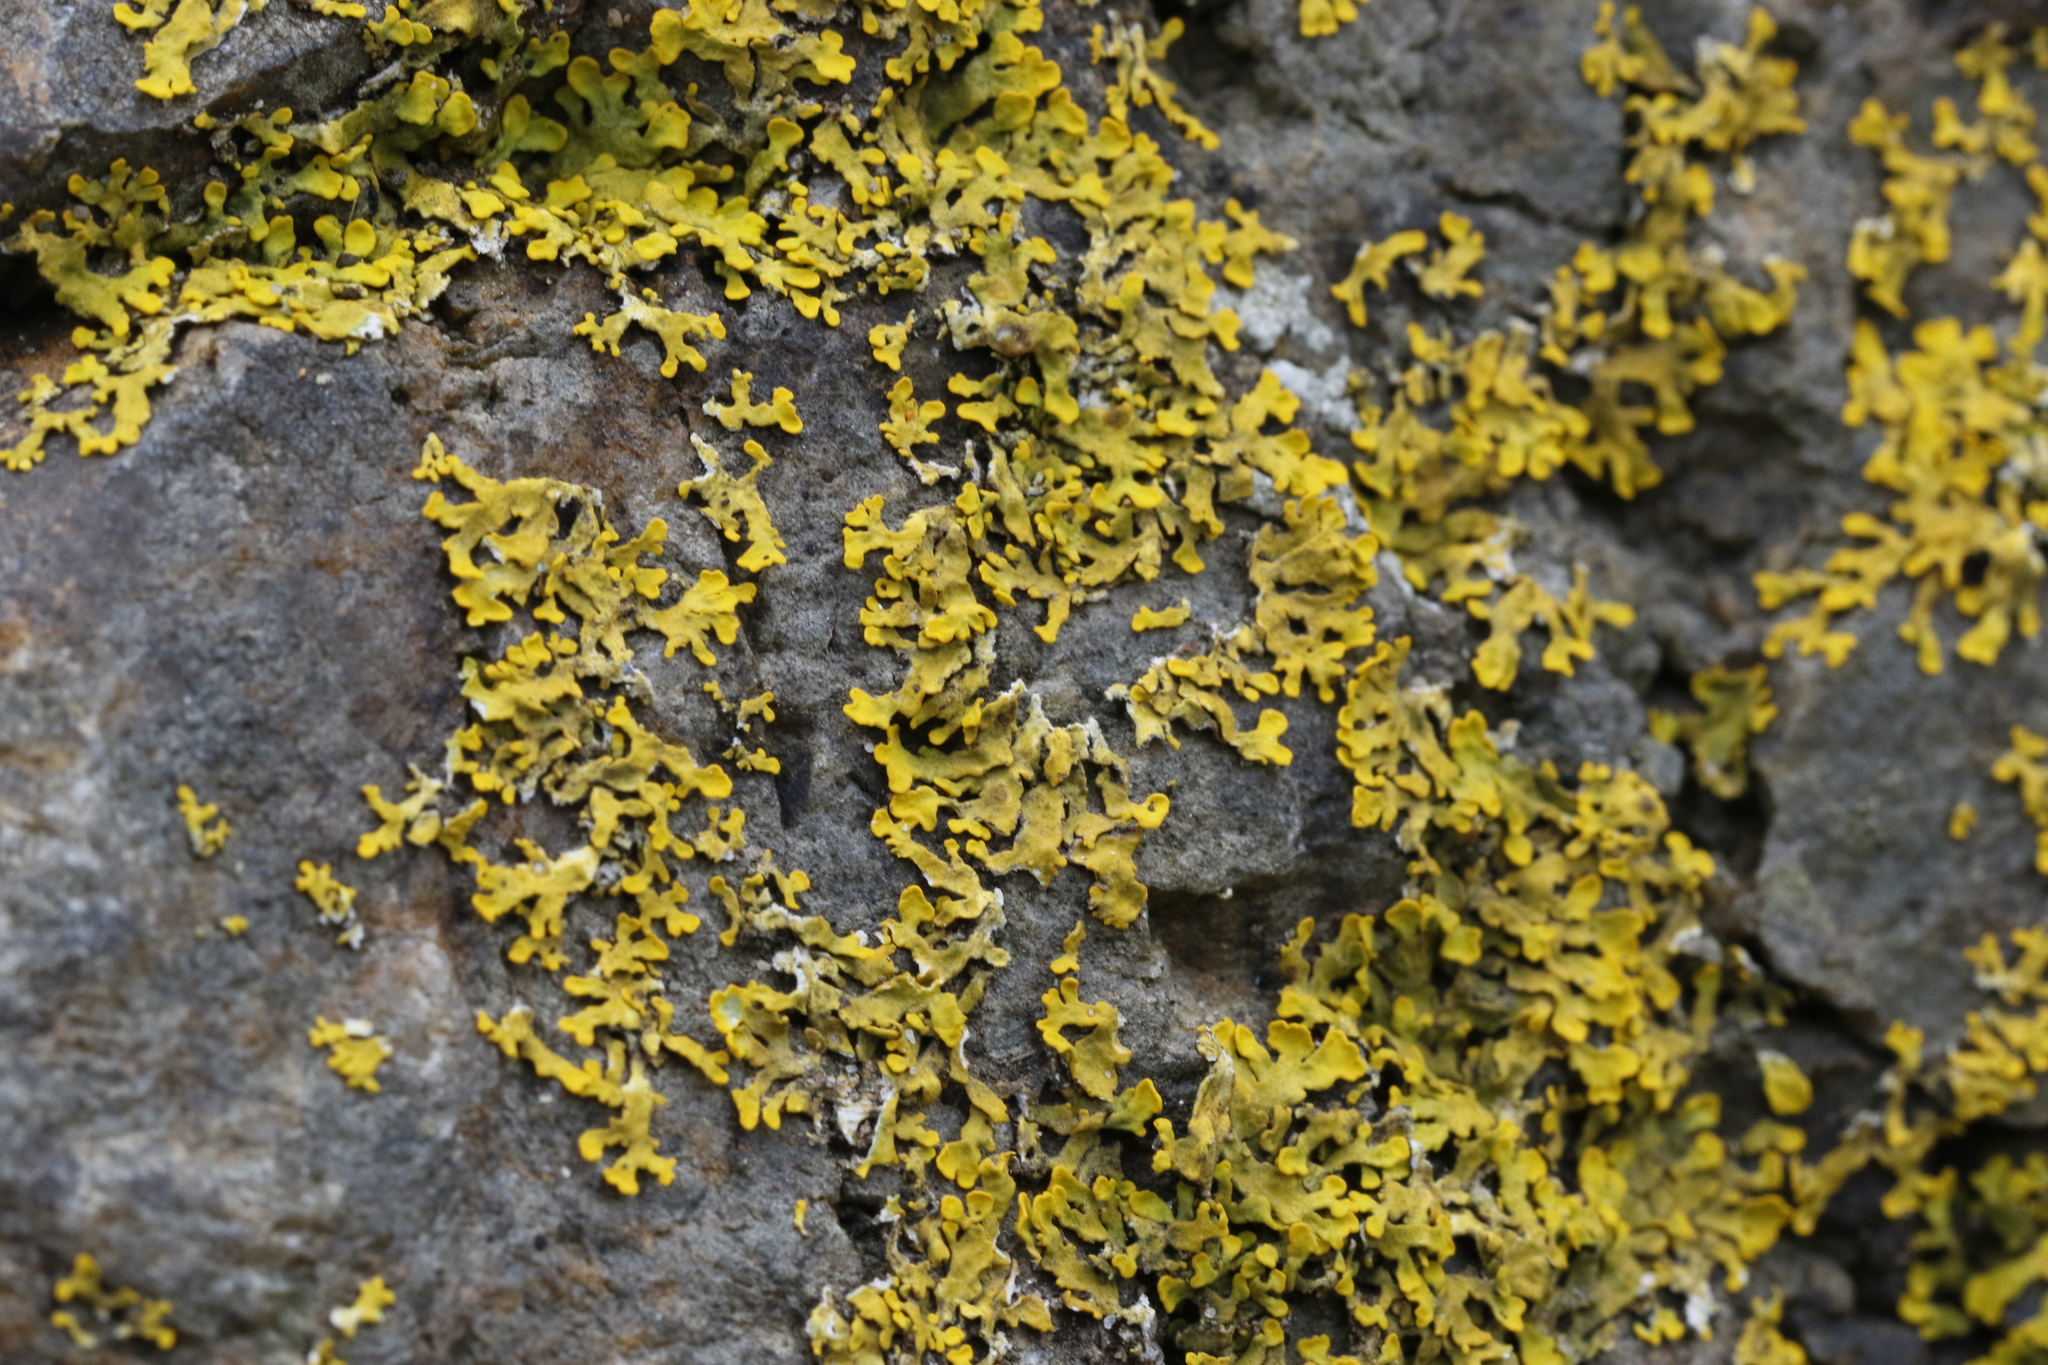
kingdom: Fungi
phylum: Ascomycota
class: Lecanoromycetes
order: Teloschistales
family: Teloschistaceae
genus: Xanthoria
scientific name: Xanthoria aureola
